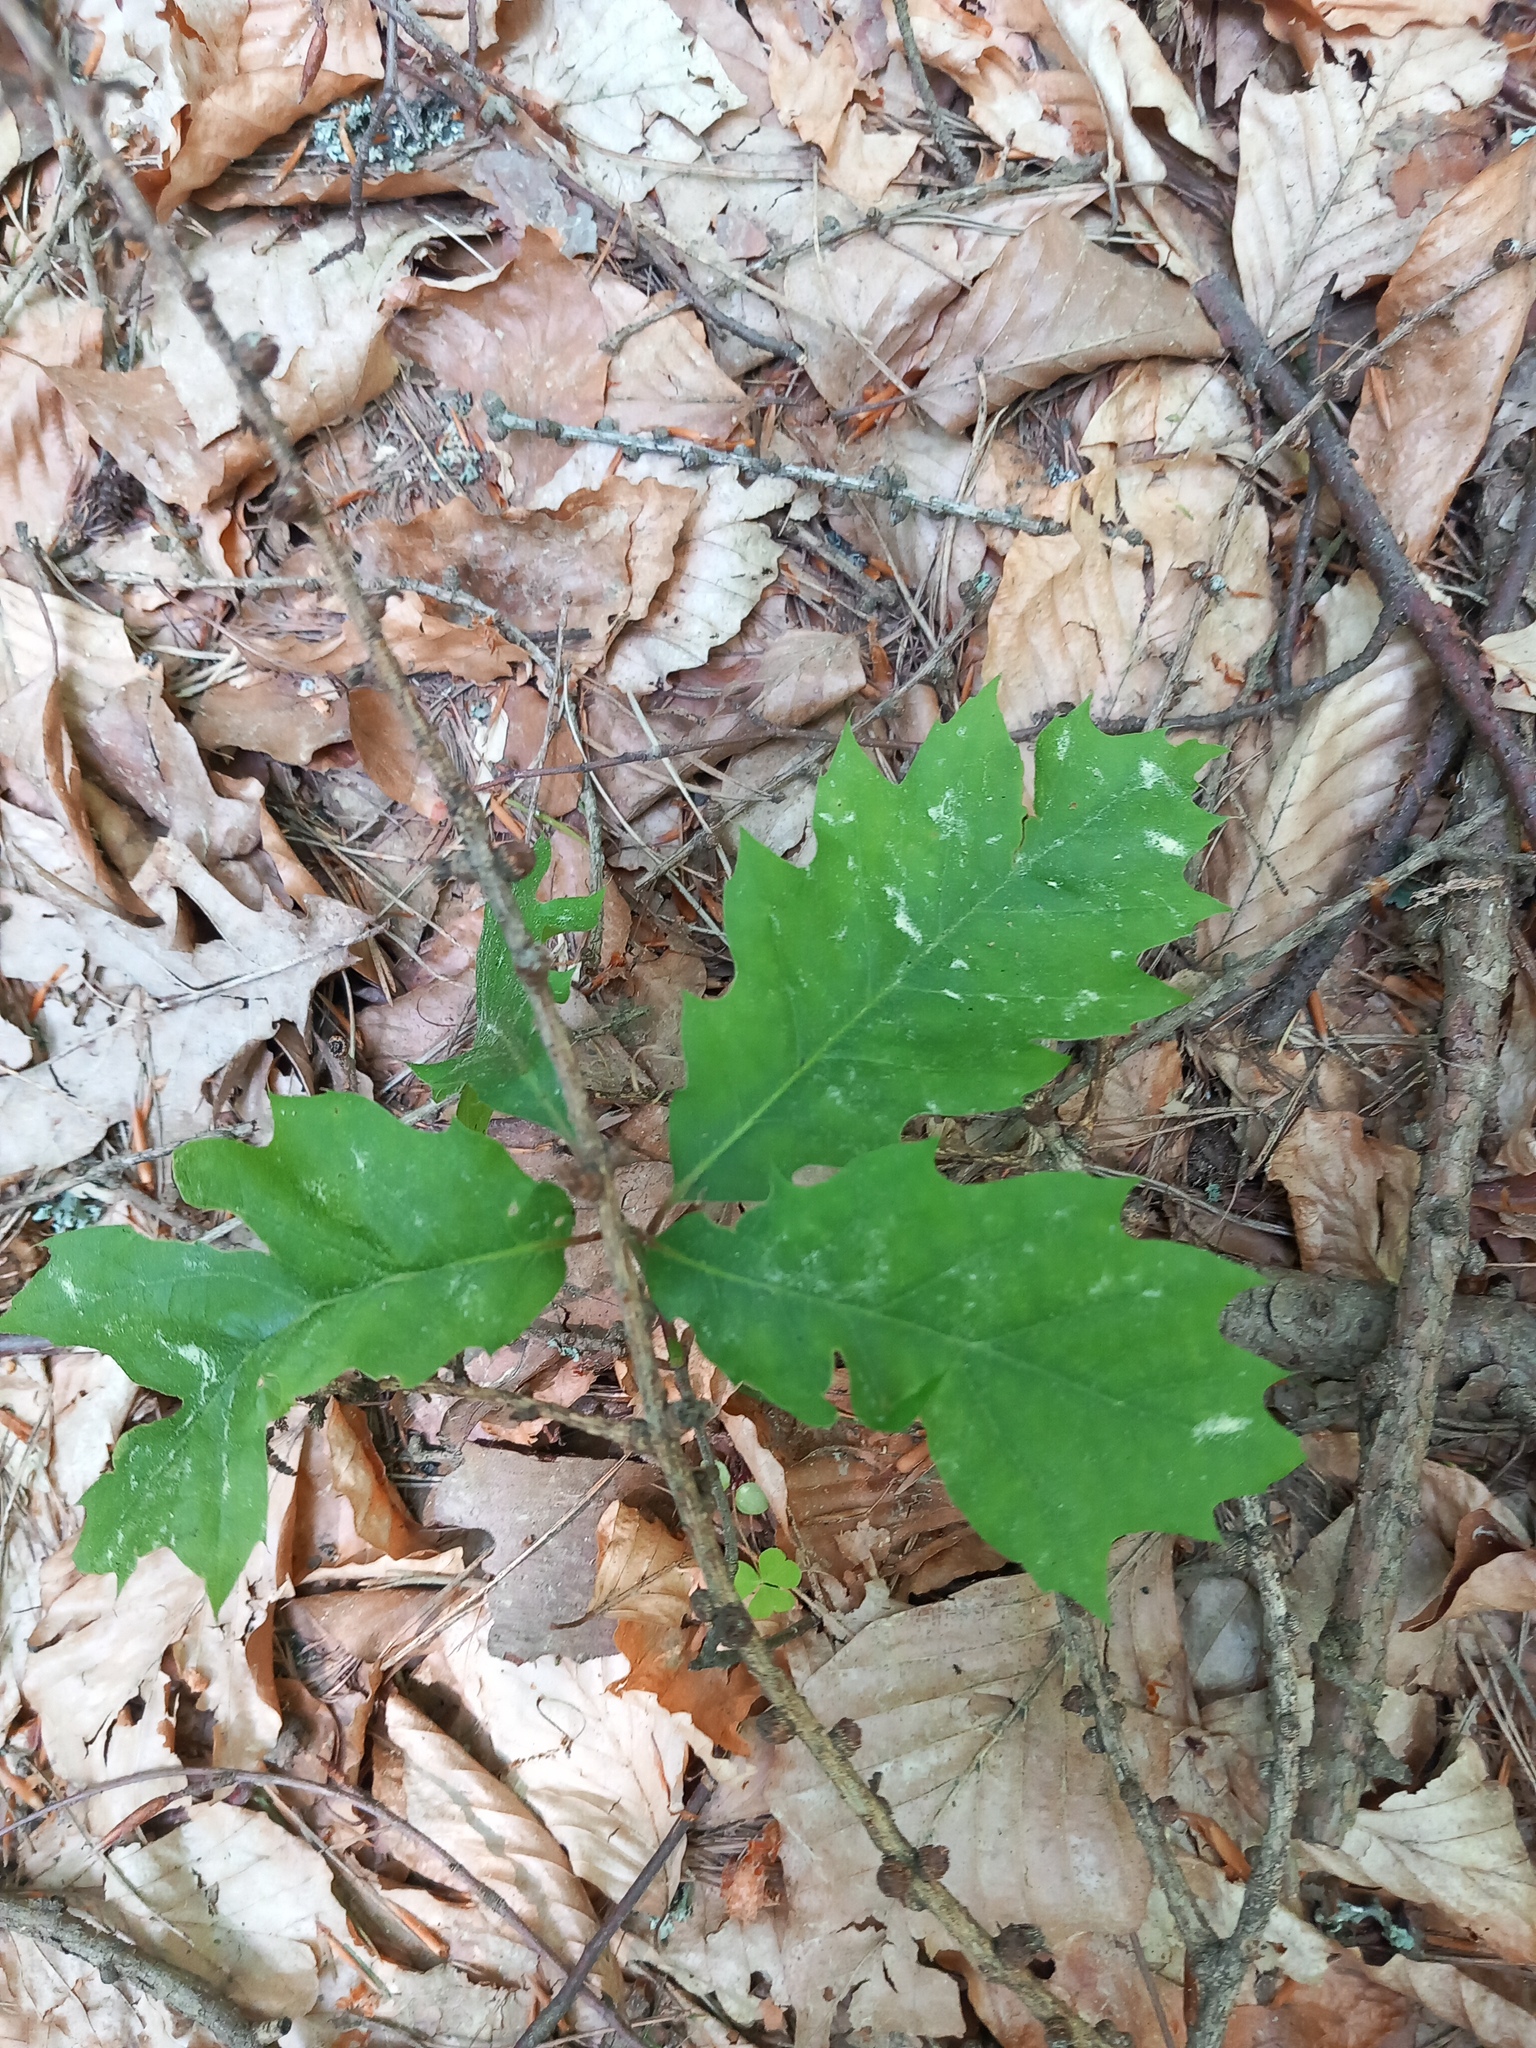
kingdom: Plantae
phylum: Tracheophyta
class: Magnoliopsida
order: Fagales
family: Fagaceae
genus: Quercus
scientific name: Quercus rubra
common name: Red oak
